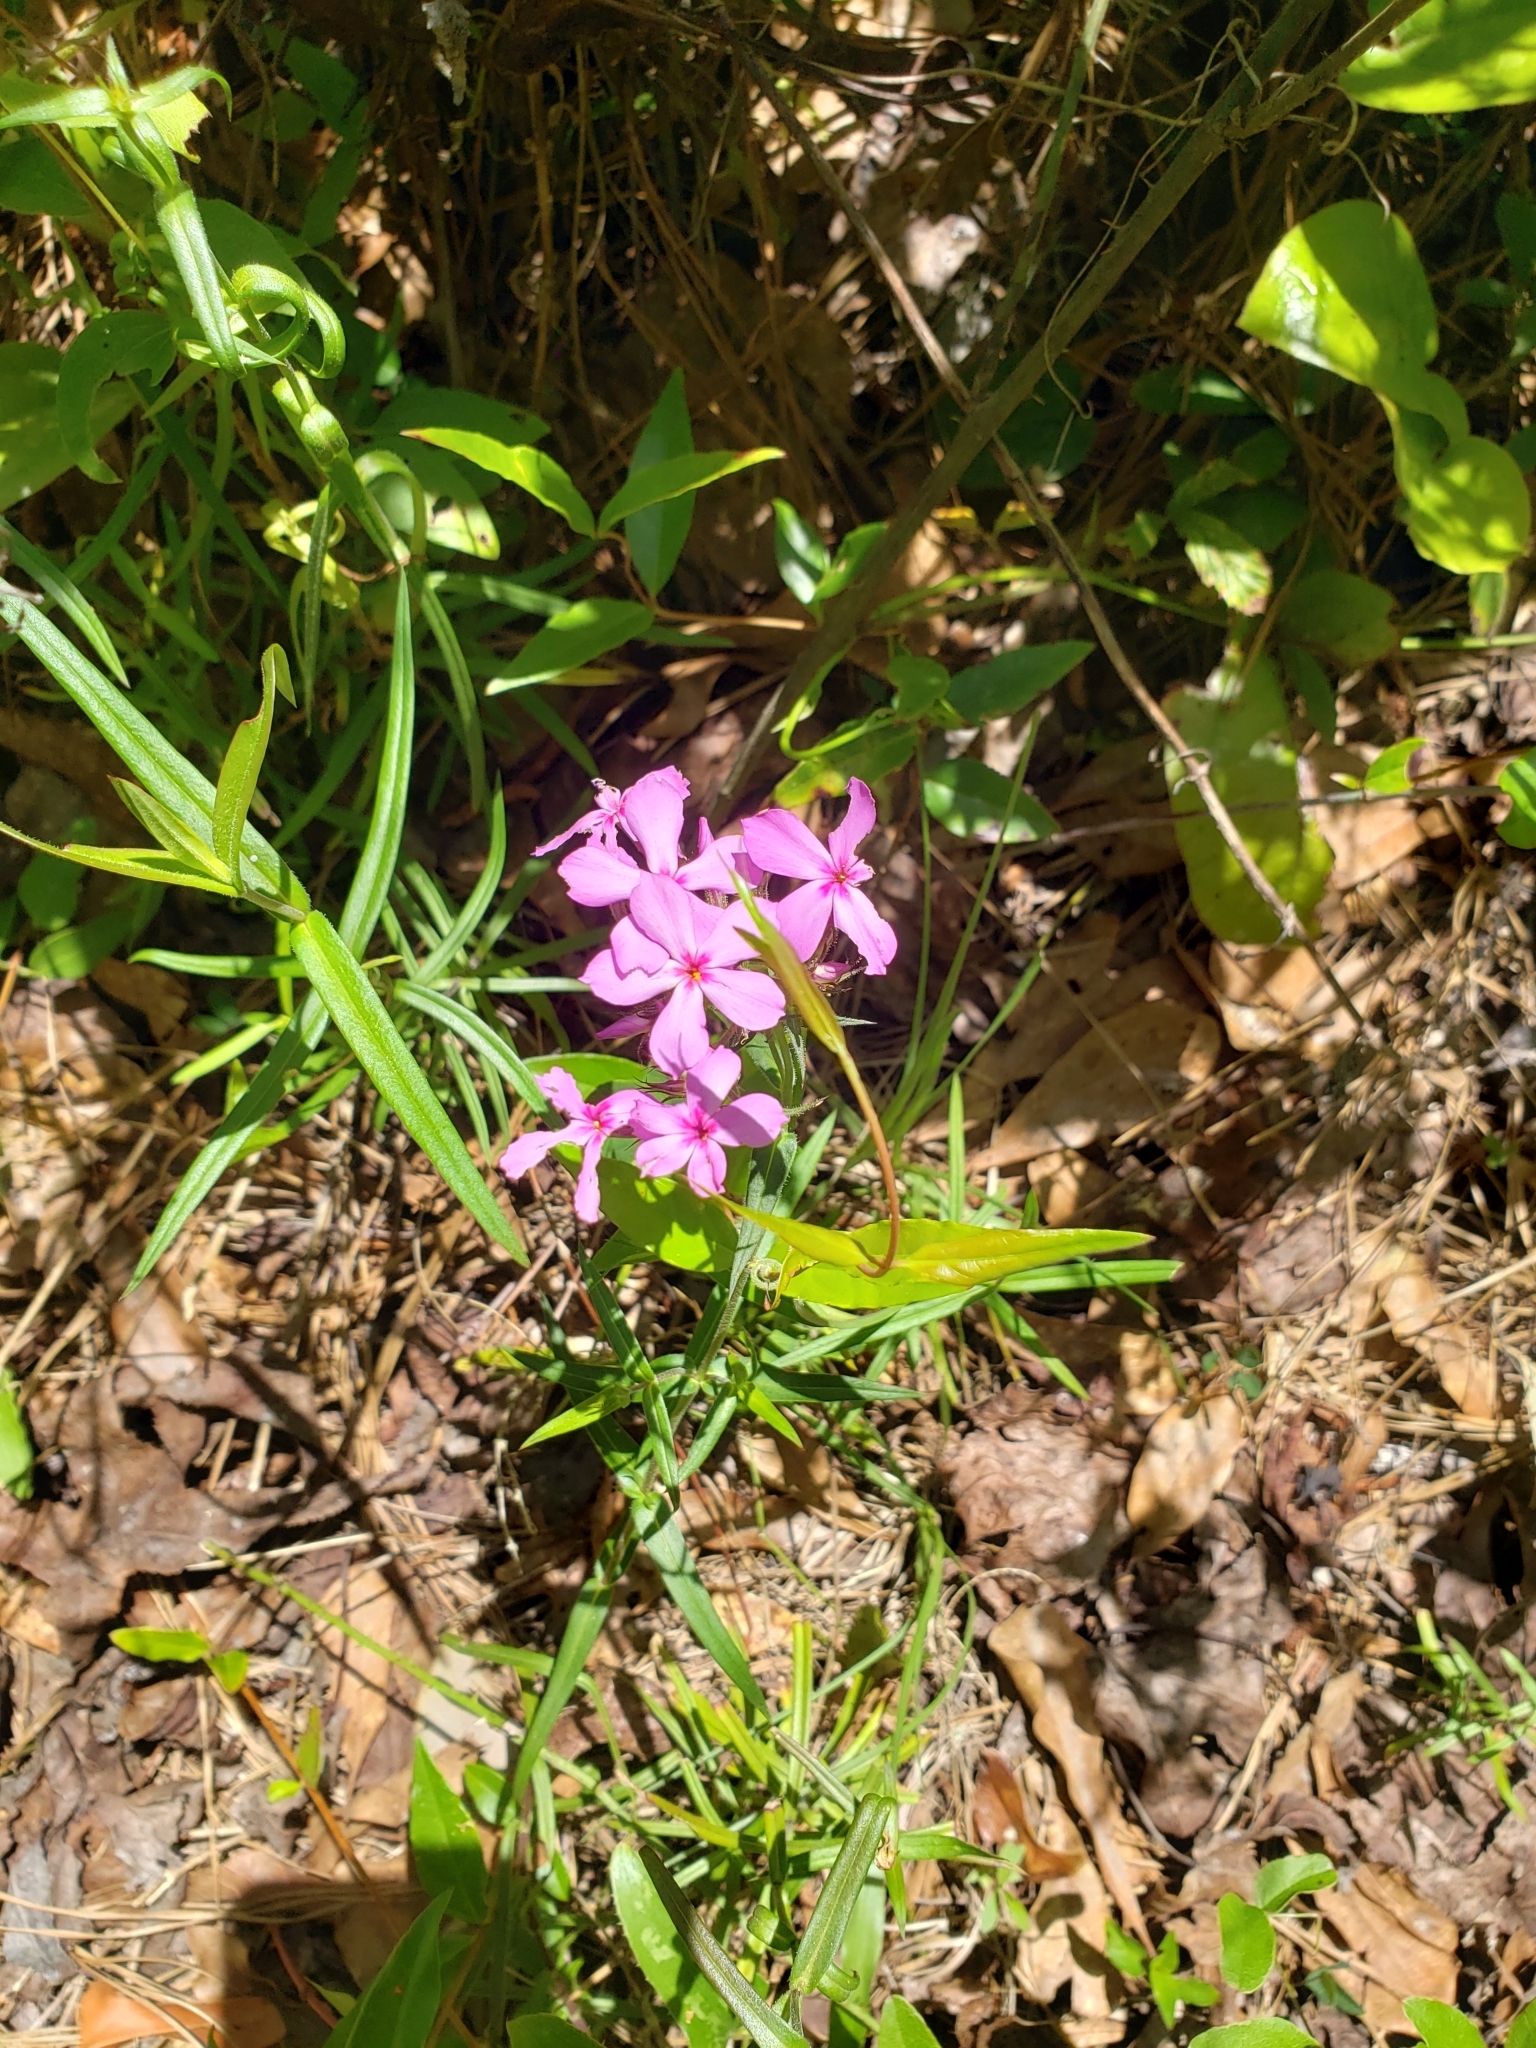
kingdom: Plantae
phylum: Tracheophyta
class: Magnoliopsida
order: Ericales
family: Polemoniaceae
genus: Phlox
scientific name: Phlox pilosa
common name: Prairie phlox
